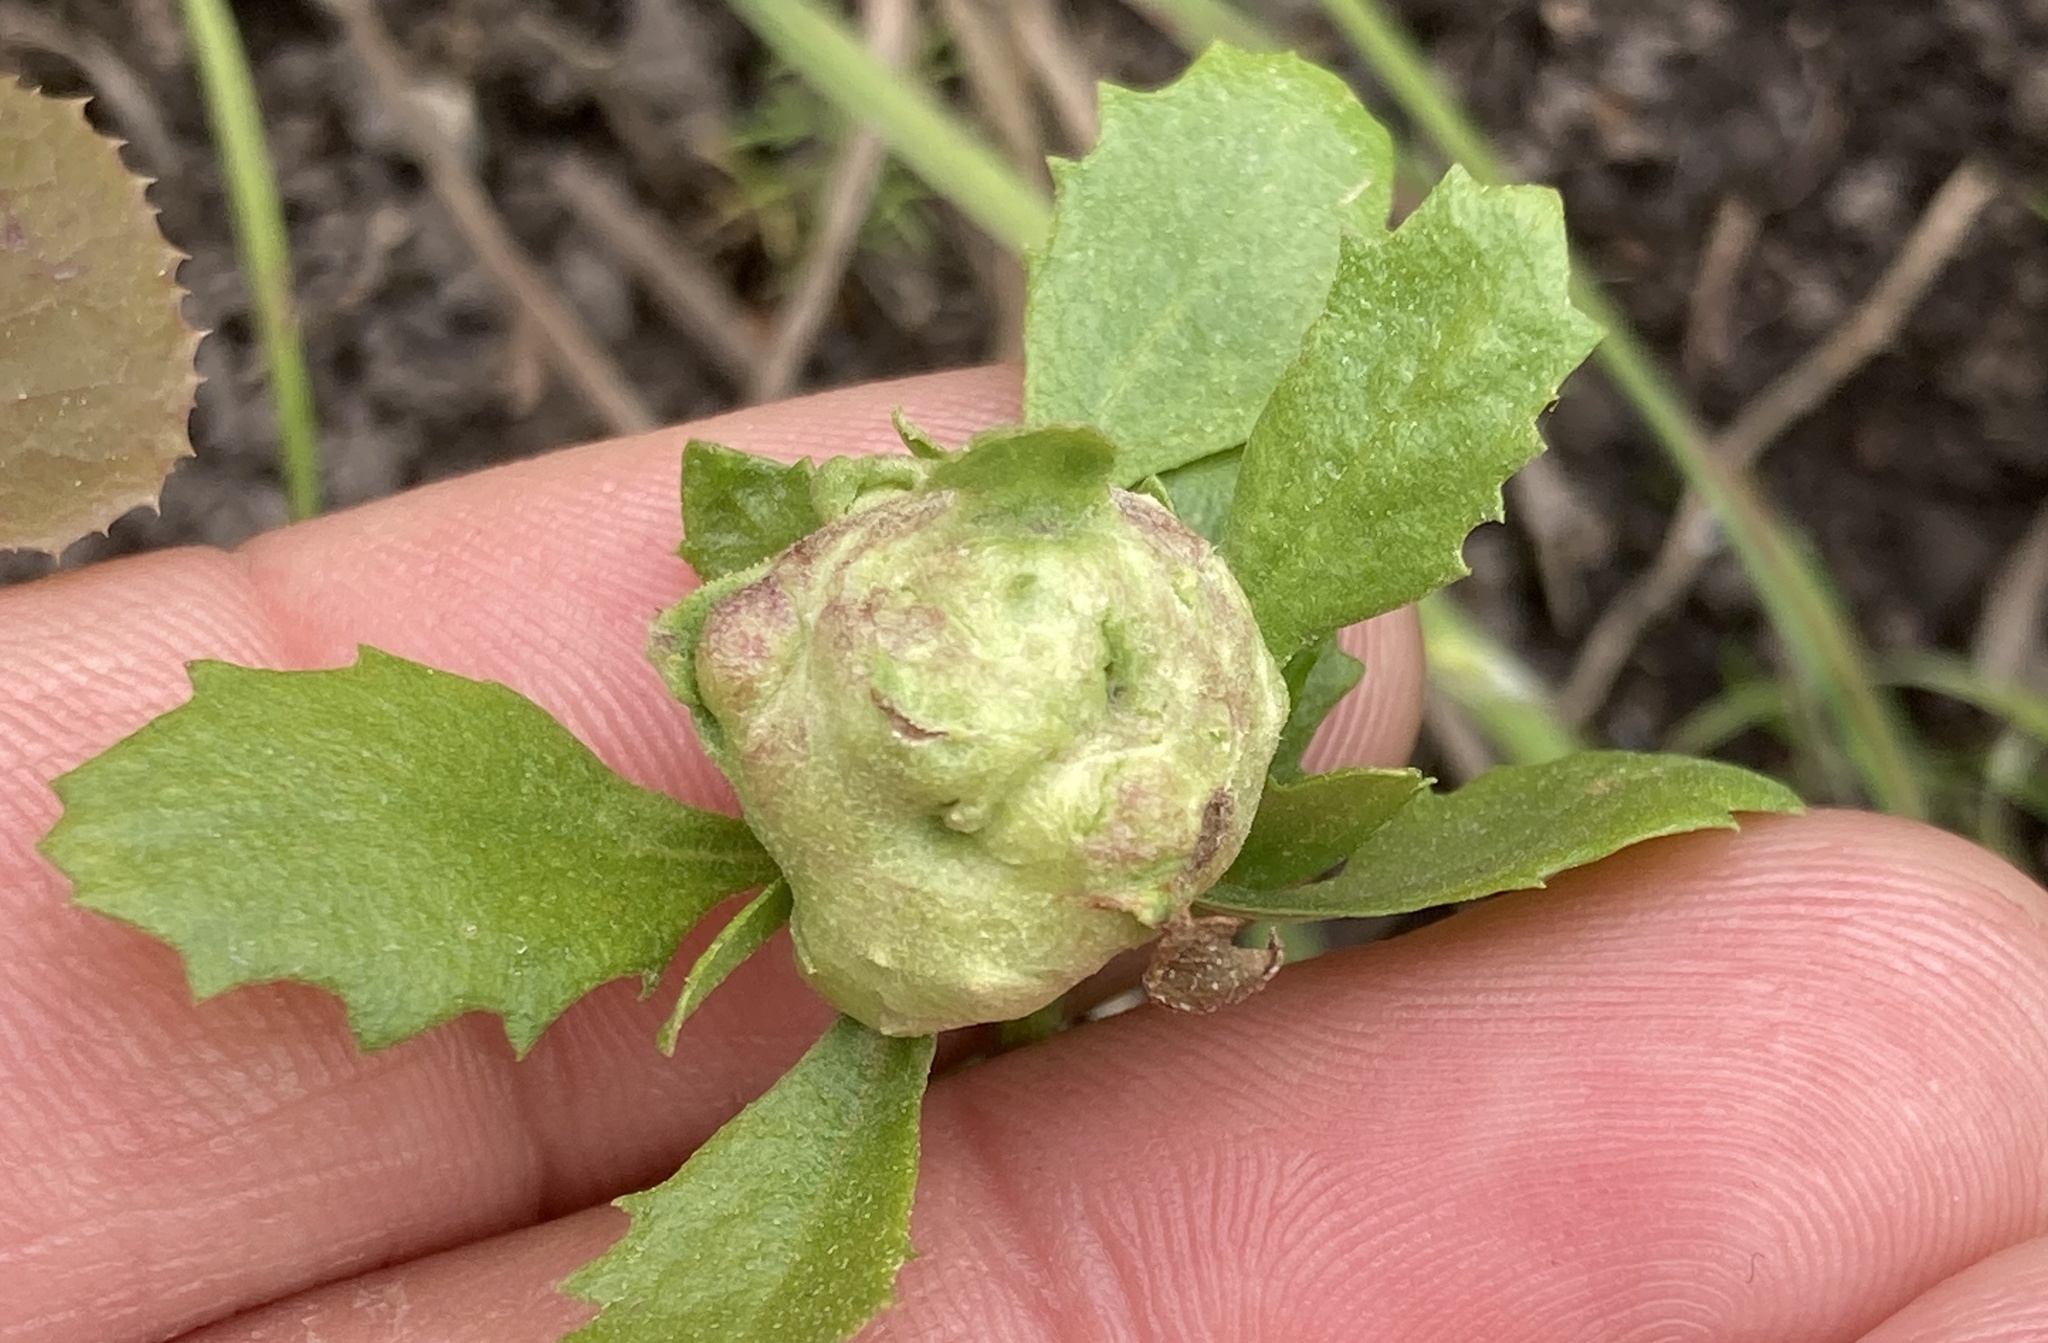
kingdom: Animalia
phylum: Arthropoda
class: Insecta
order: Diptera
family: Cecidomyiidae
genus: Rhopalomyia
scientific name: Rhopalomyia californica
